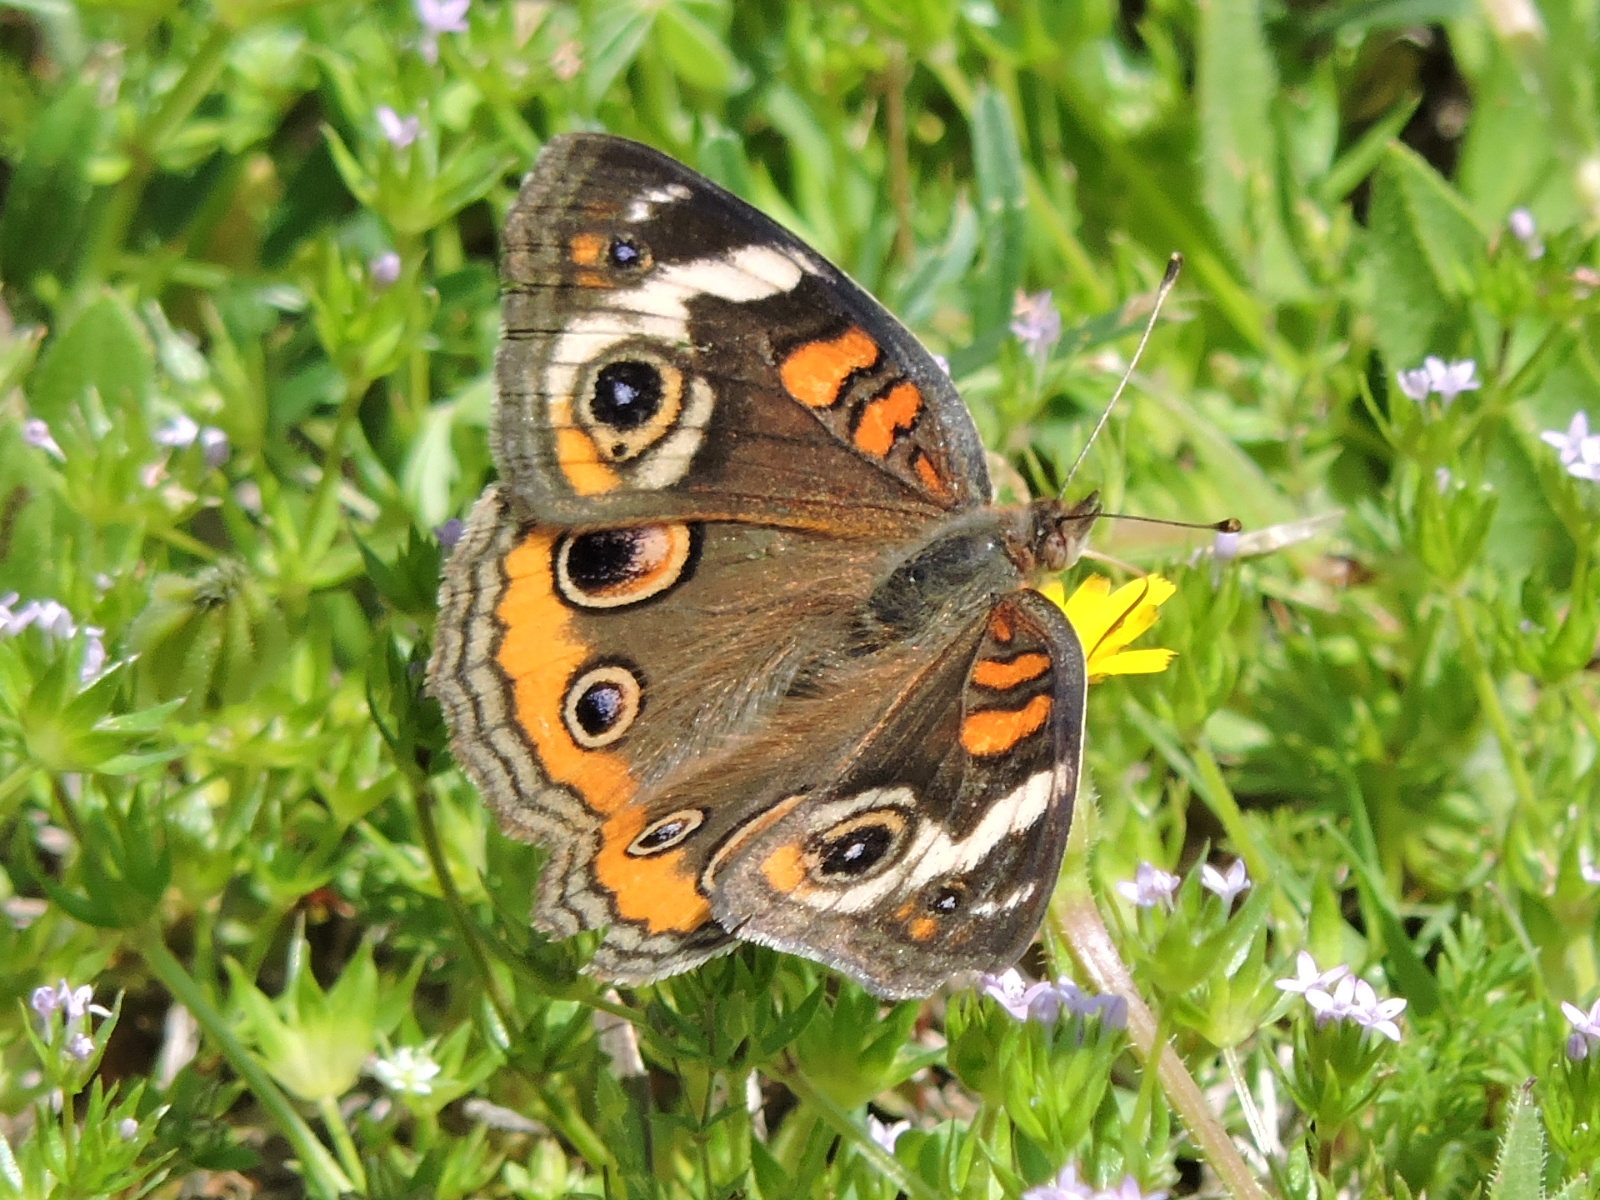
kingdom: Animalia
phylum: Arthropoda
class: Insecta
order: Lepidoptera
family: Nymphalidae
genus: Junonia
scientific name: Junonia coenia
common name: Common buckeye
